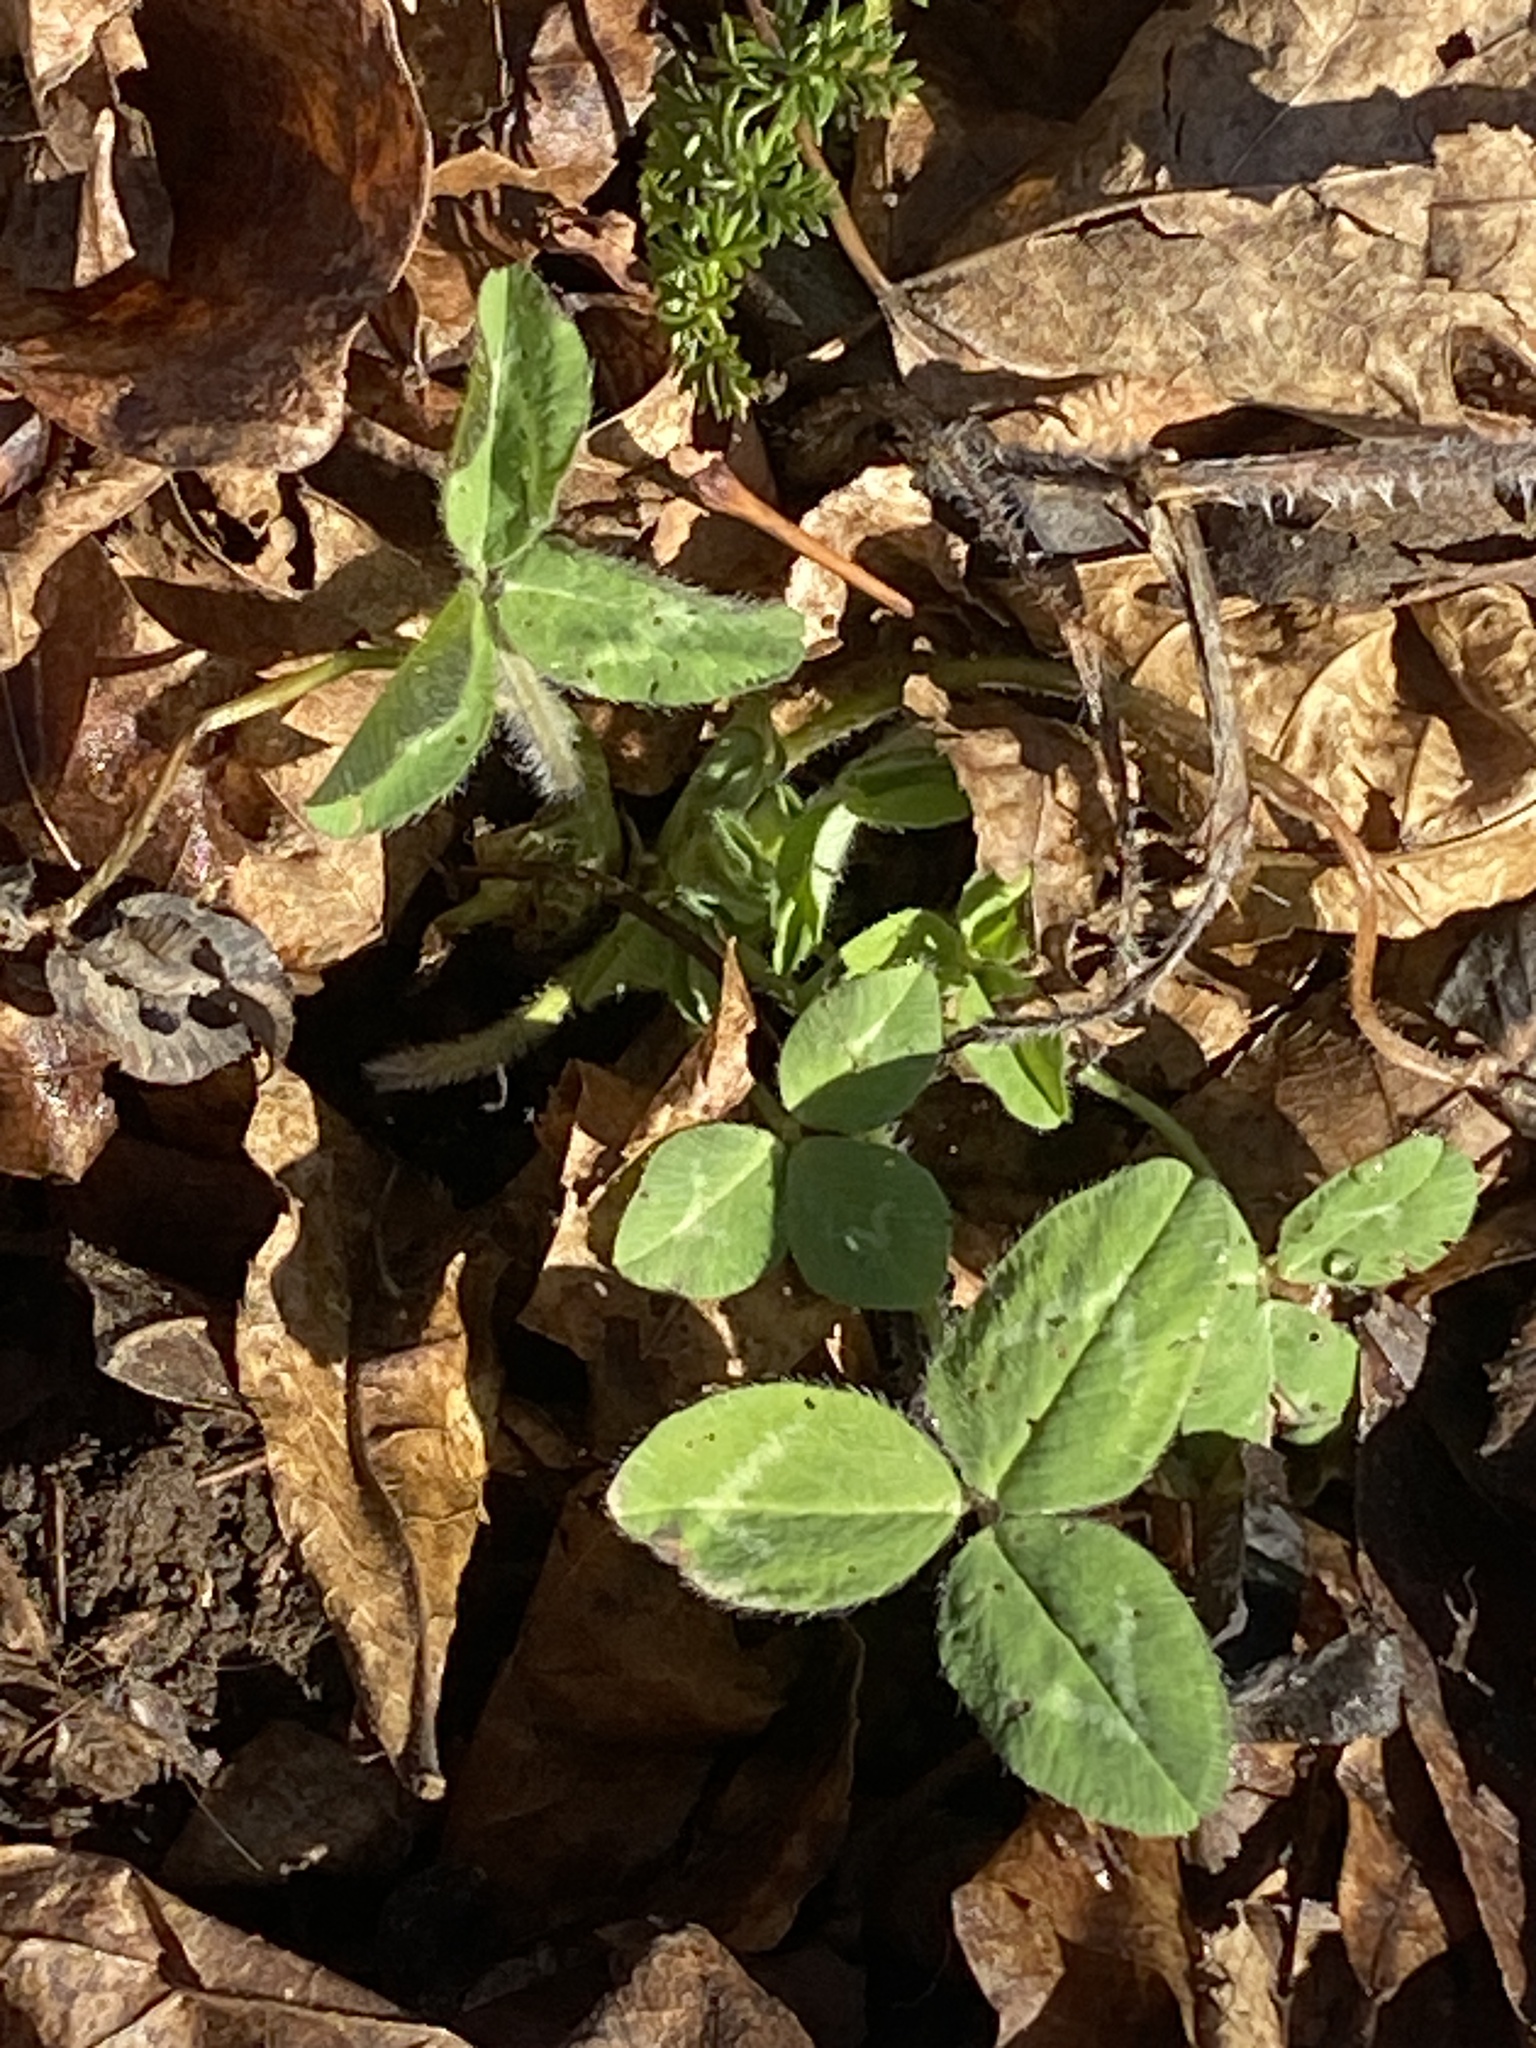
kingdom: Plantae
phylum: Tracheophyta
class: Magnoliopsida
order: Fabales
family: Fabaceae
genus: Trifolium
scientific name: Trifolium pratense
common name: Red clover
